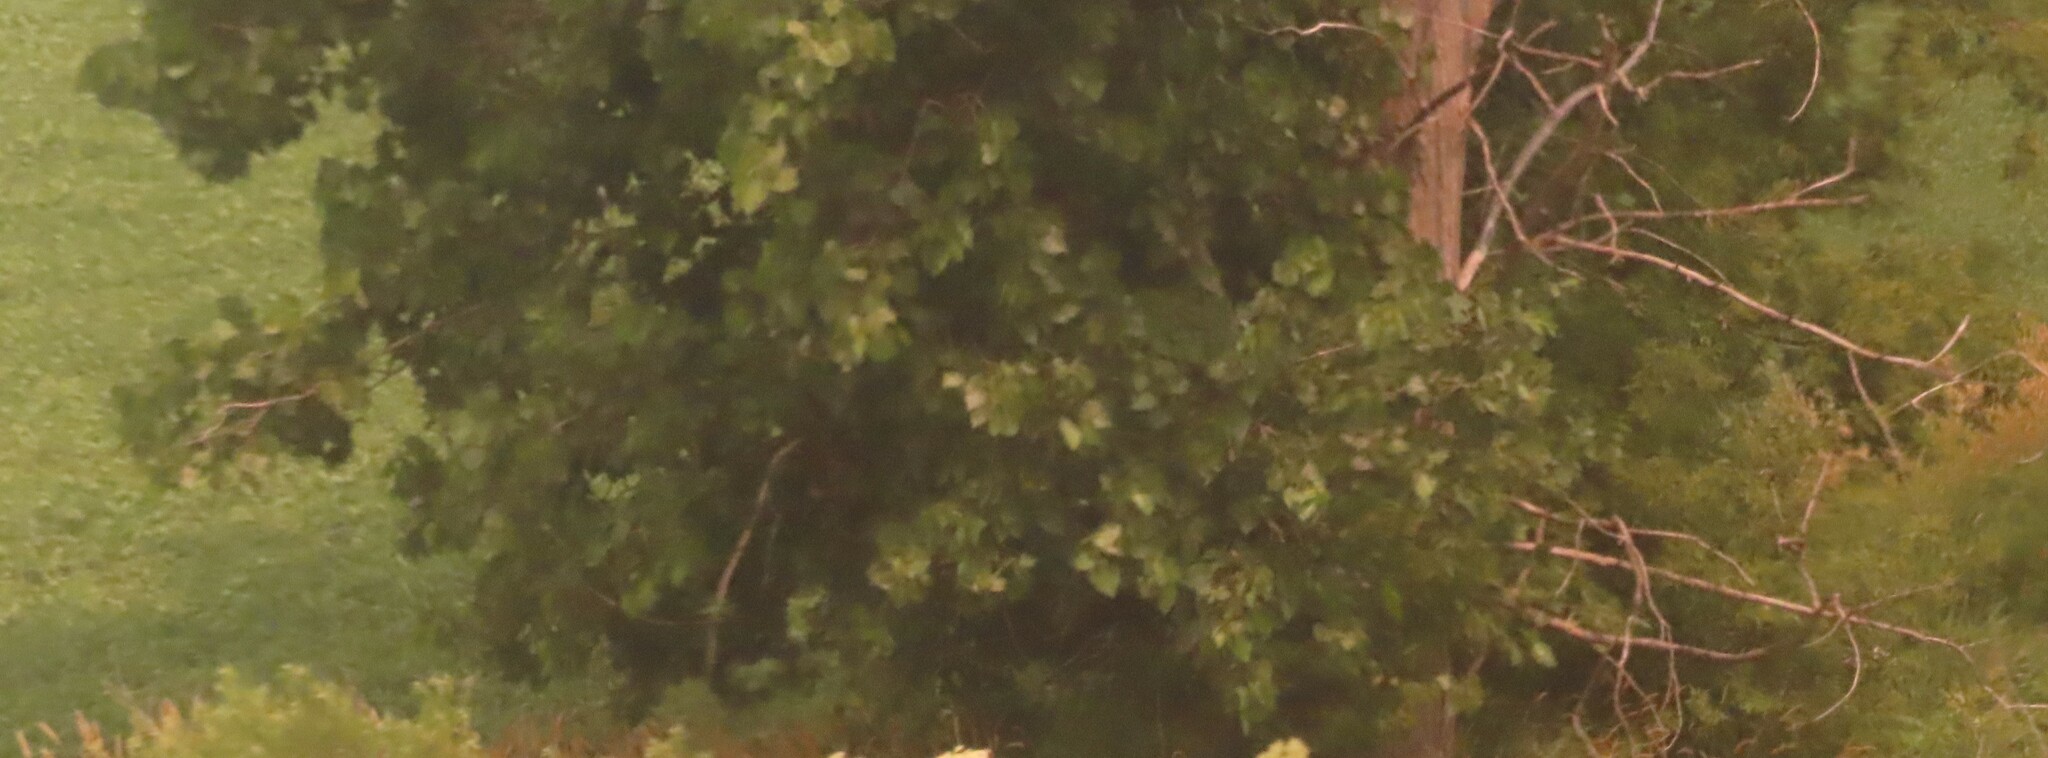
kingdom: Plantae
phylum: Tracheophyta
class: Magnoliopsida
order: Malpighiales
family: Salicaceae
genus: Populus
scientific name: Populus deltoides
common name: Eastern cottonwood
